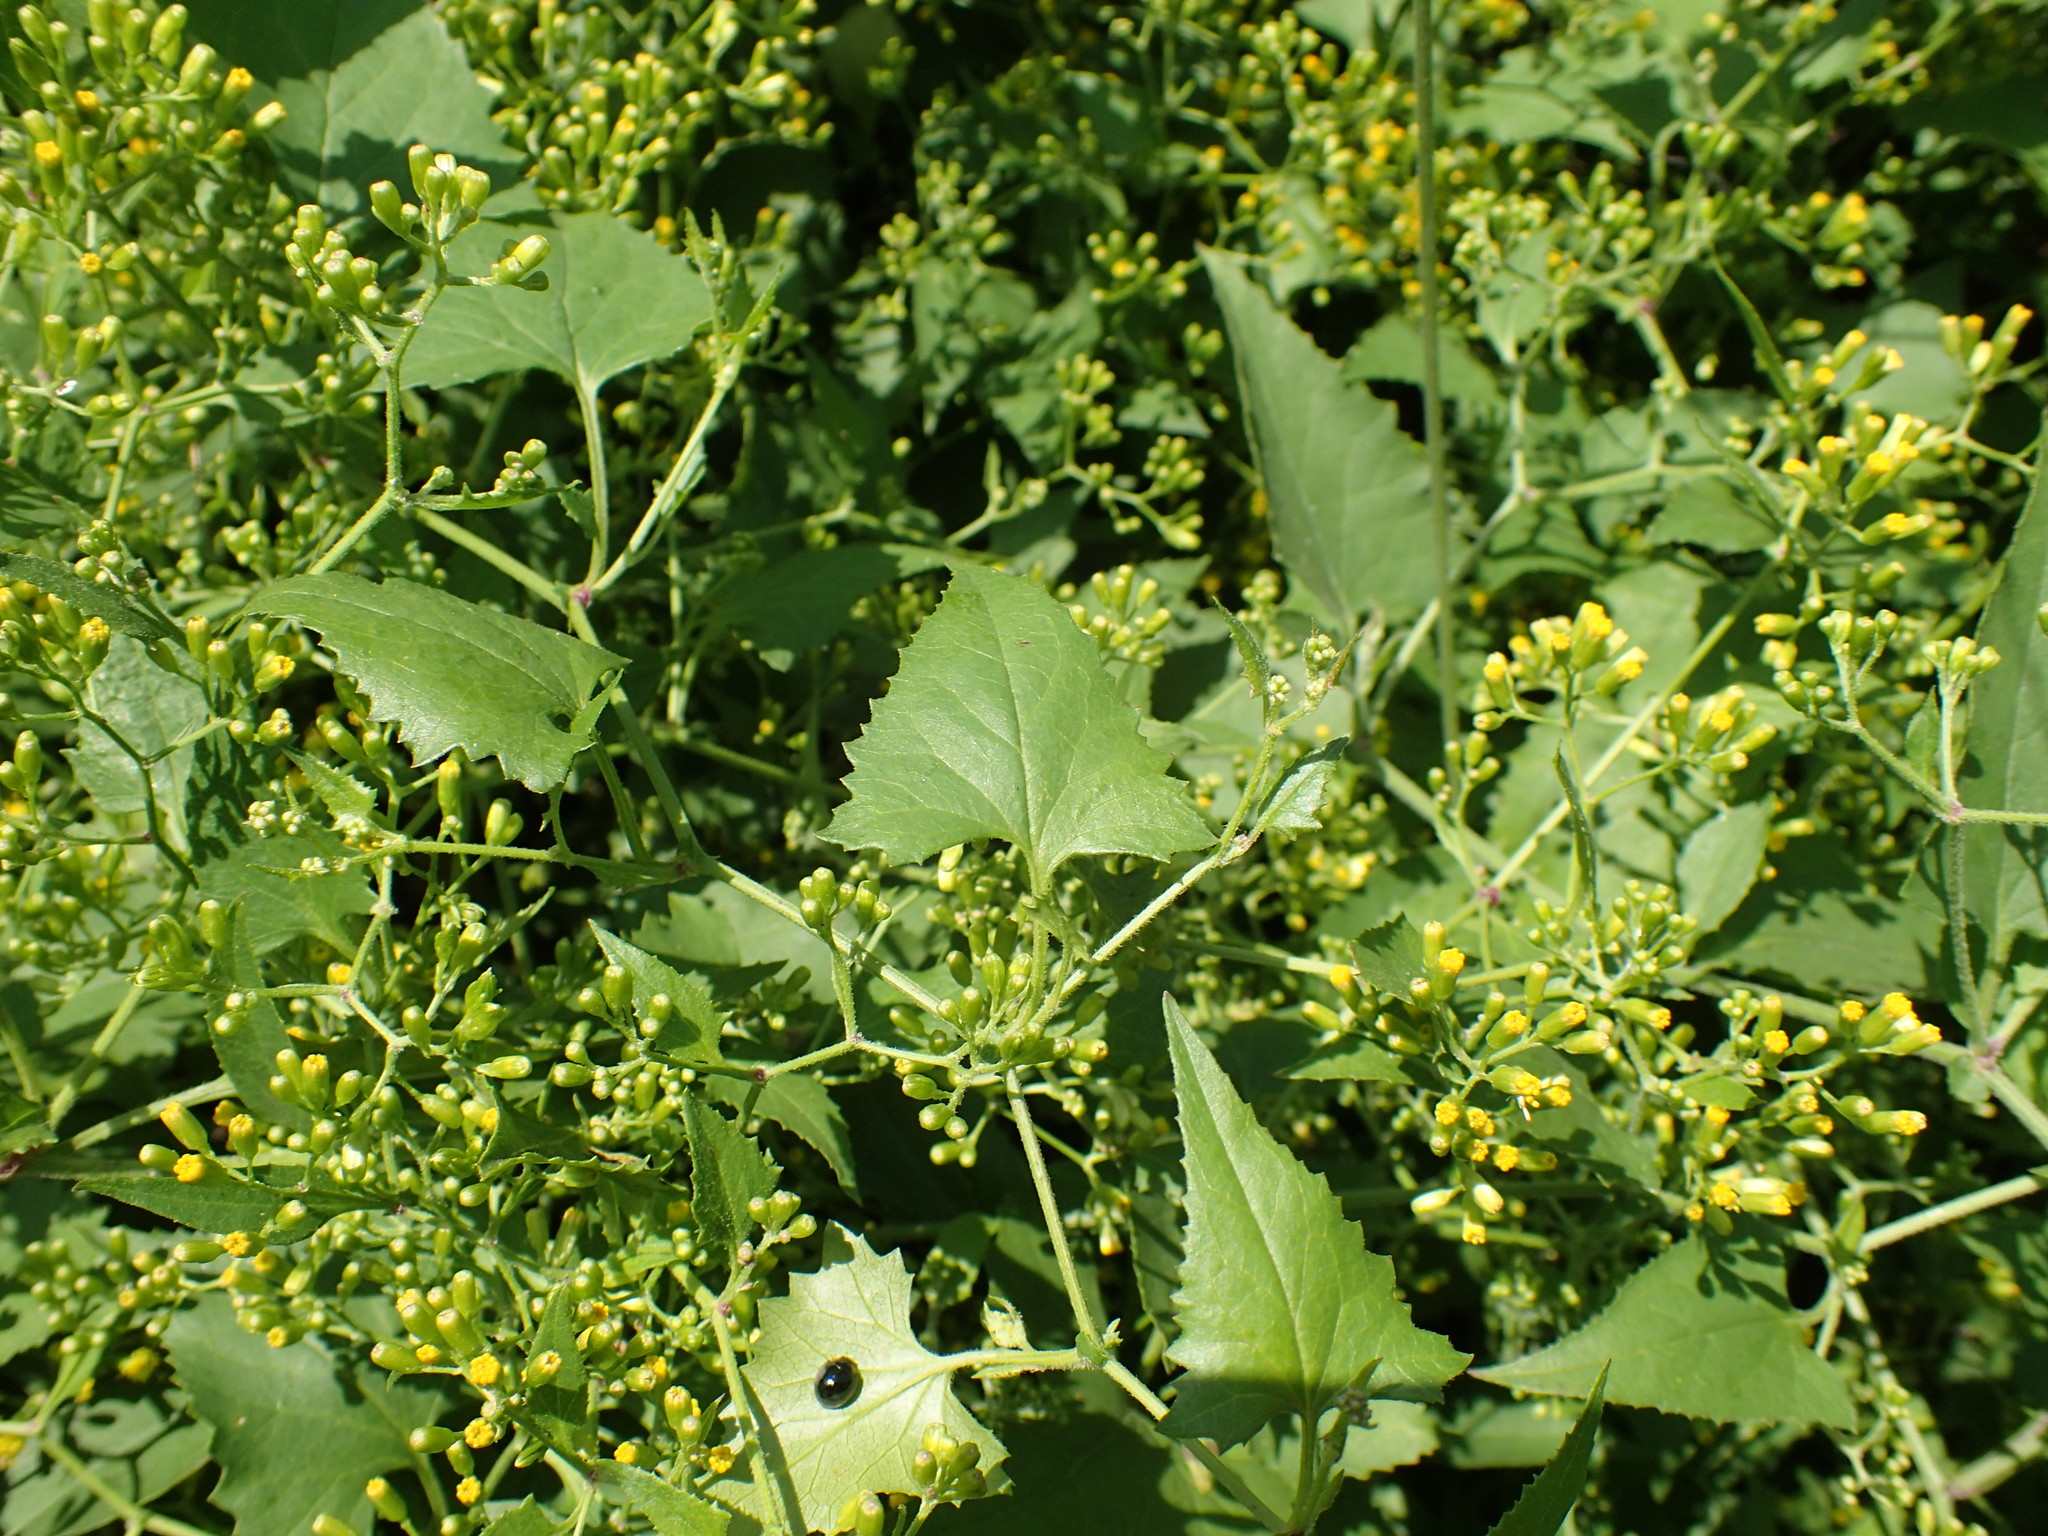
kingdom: Plantae
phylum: Tracheophyta
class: Magnoliopsida
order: Asterales
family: Asteraceae
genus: Senecio
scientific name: Senecio deltoideus
